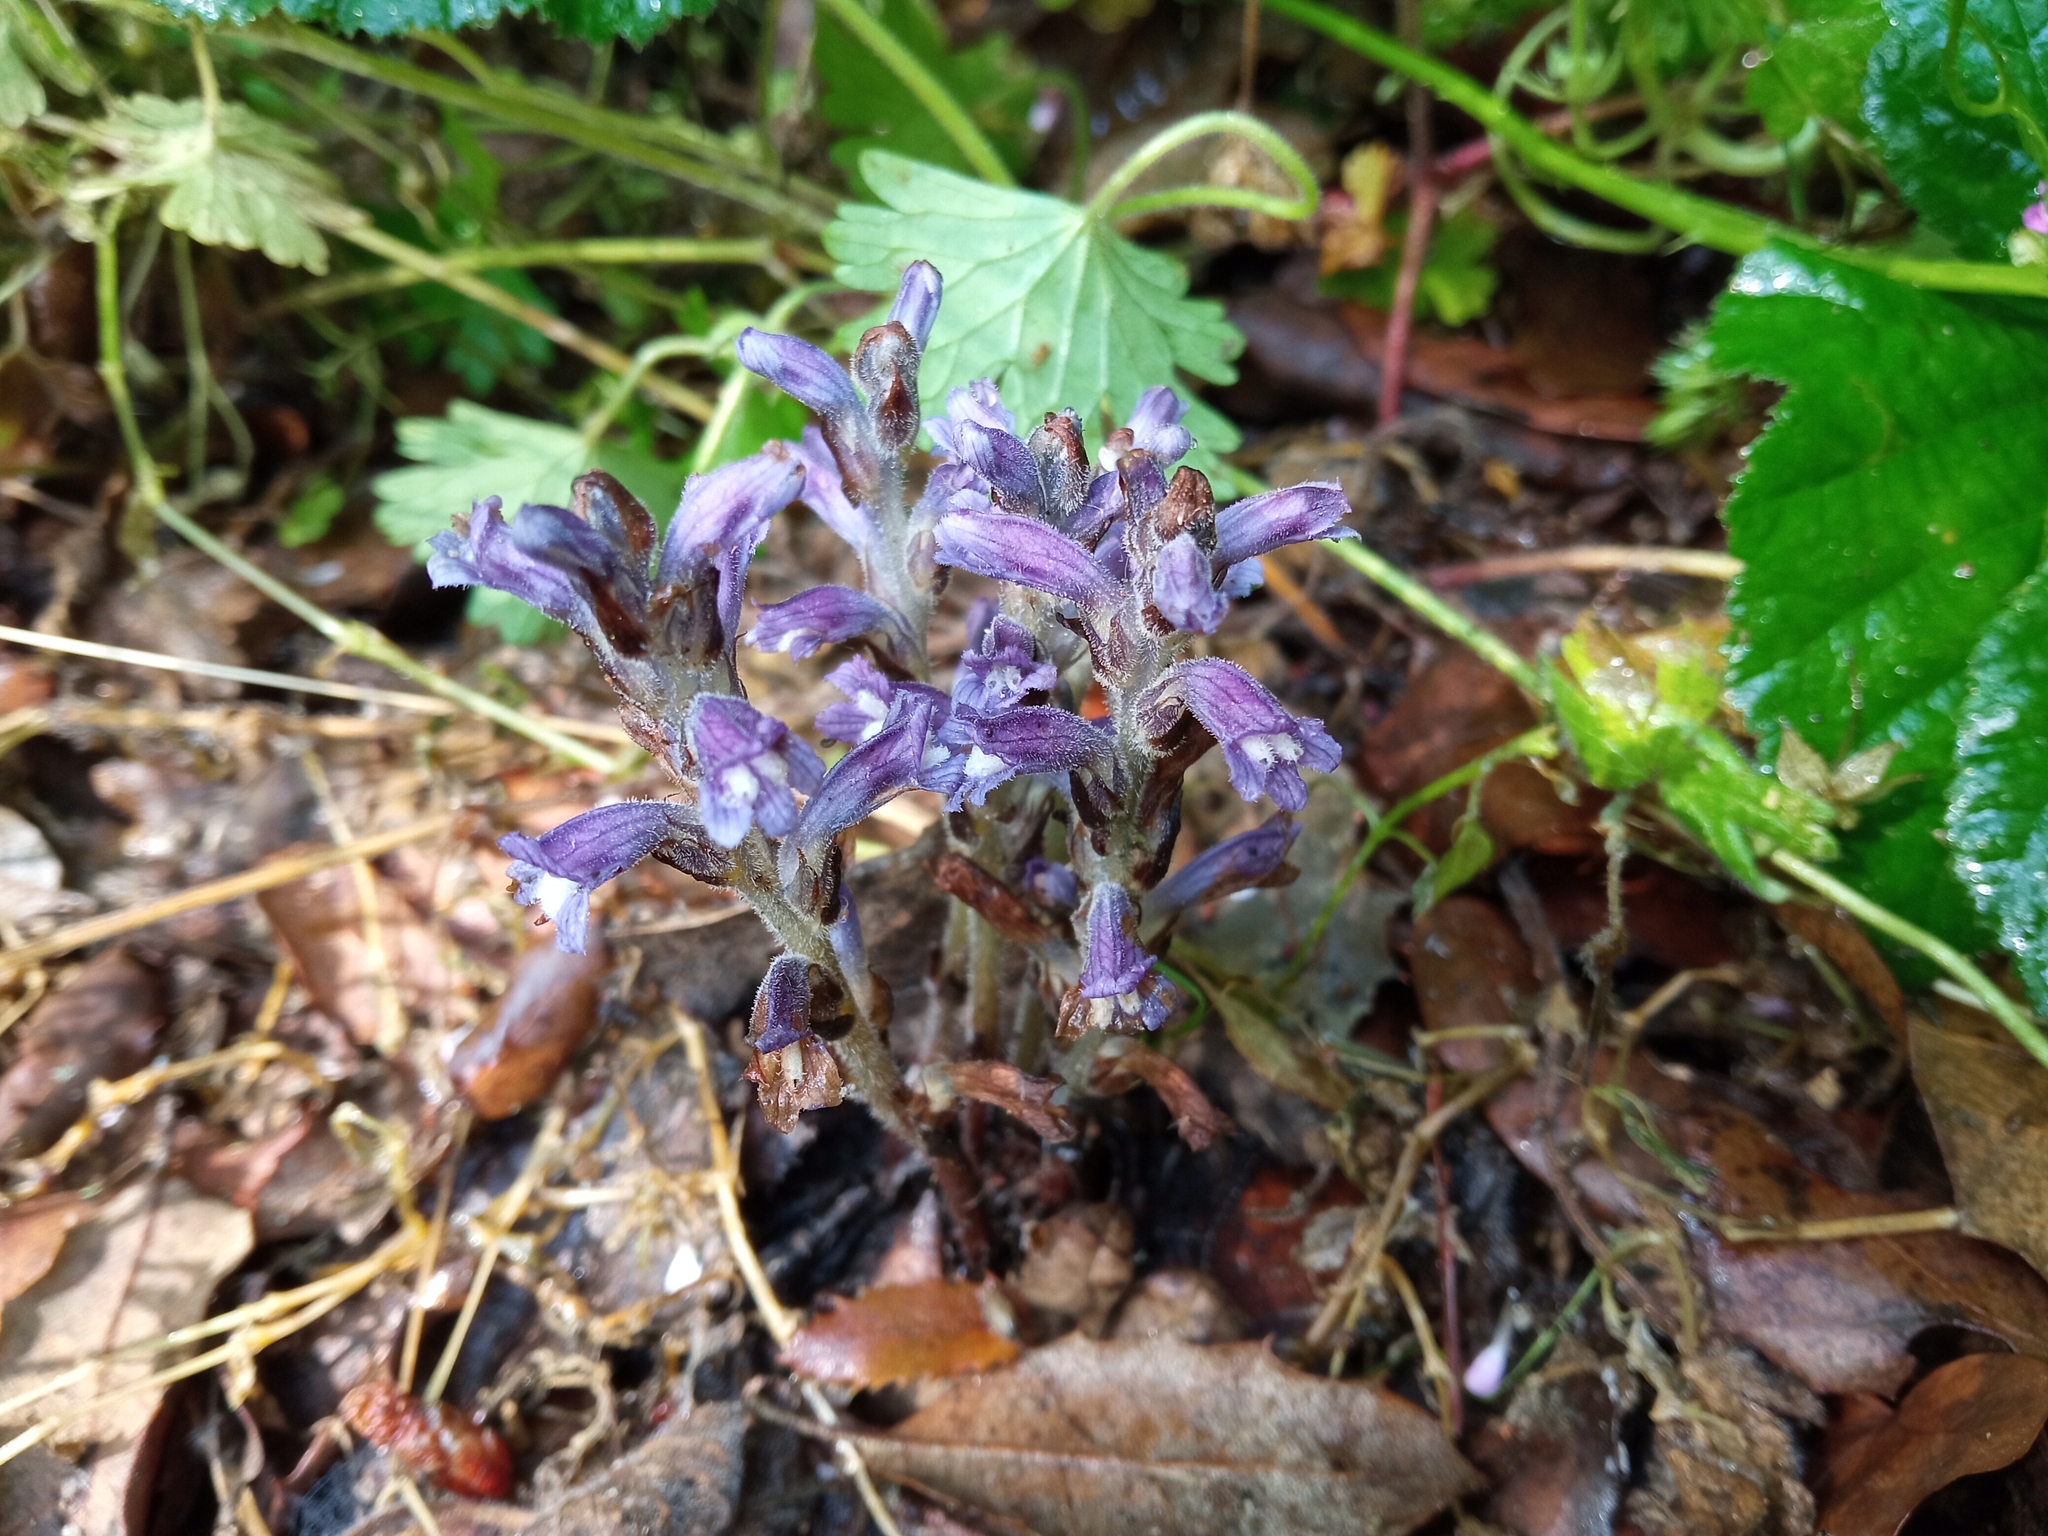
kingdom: Plantae
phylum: Tracheophyta
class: Magnoliopsida
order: Lamiales
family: Orobanchaceae
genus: Phelipanche
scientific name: Phelipanche mutelii
